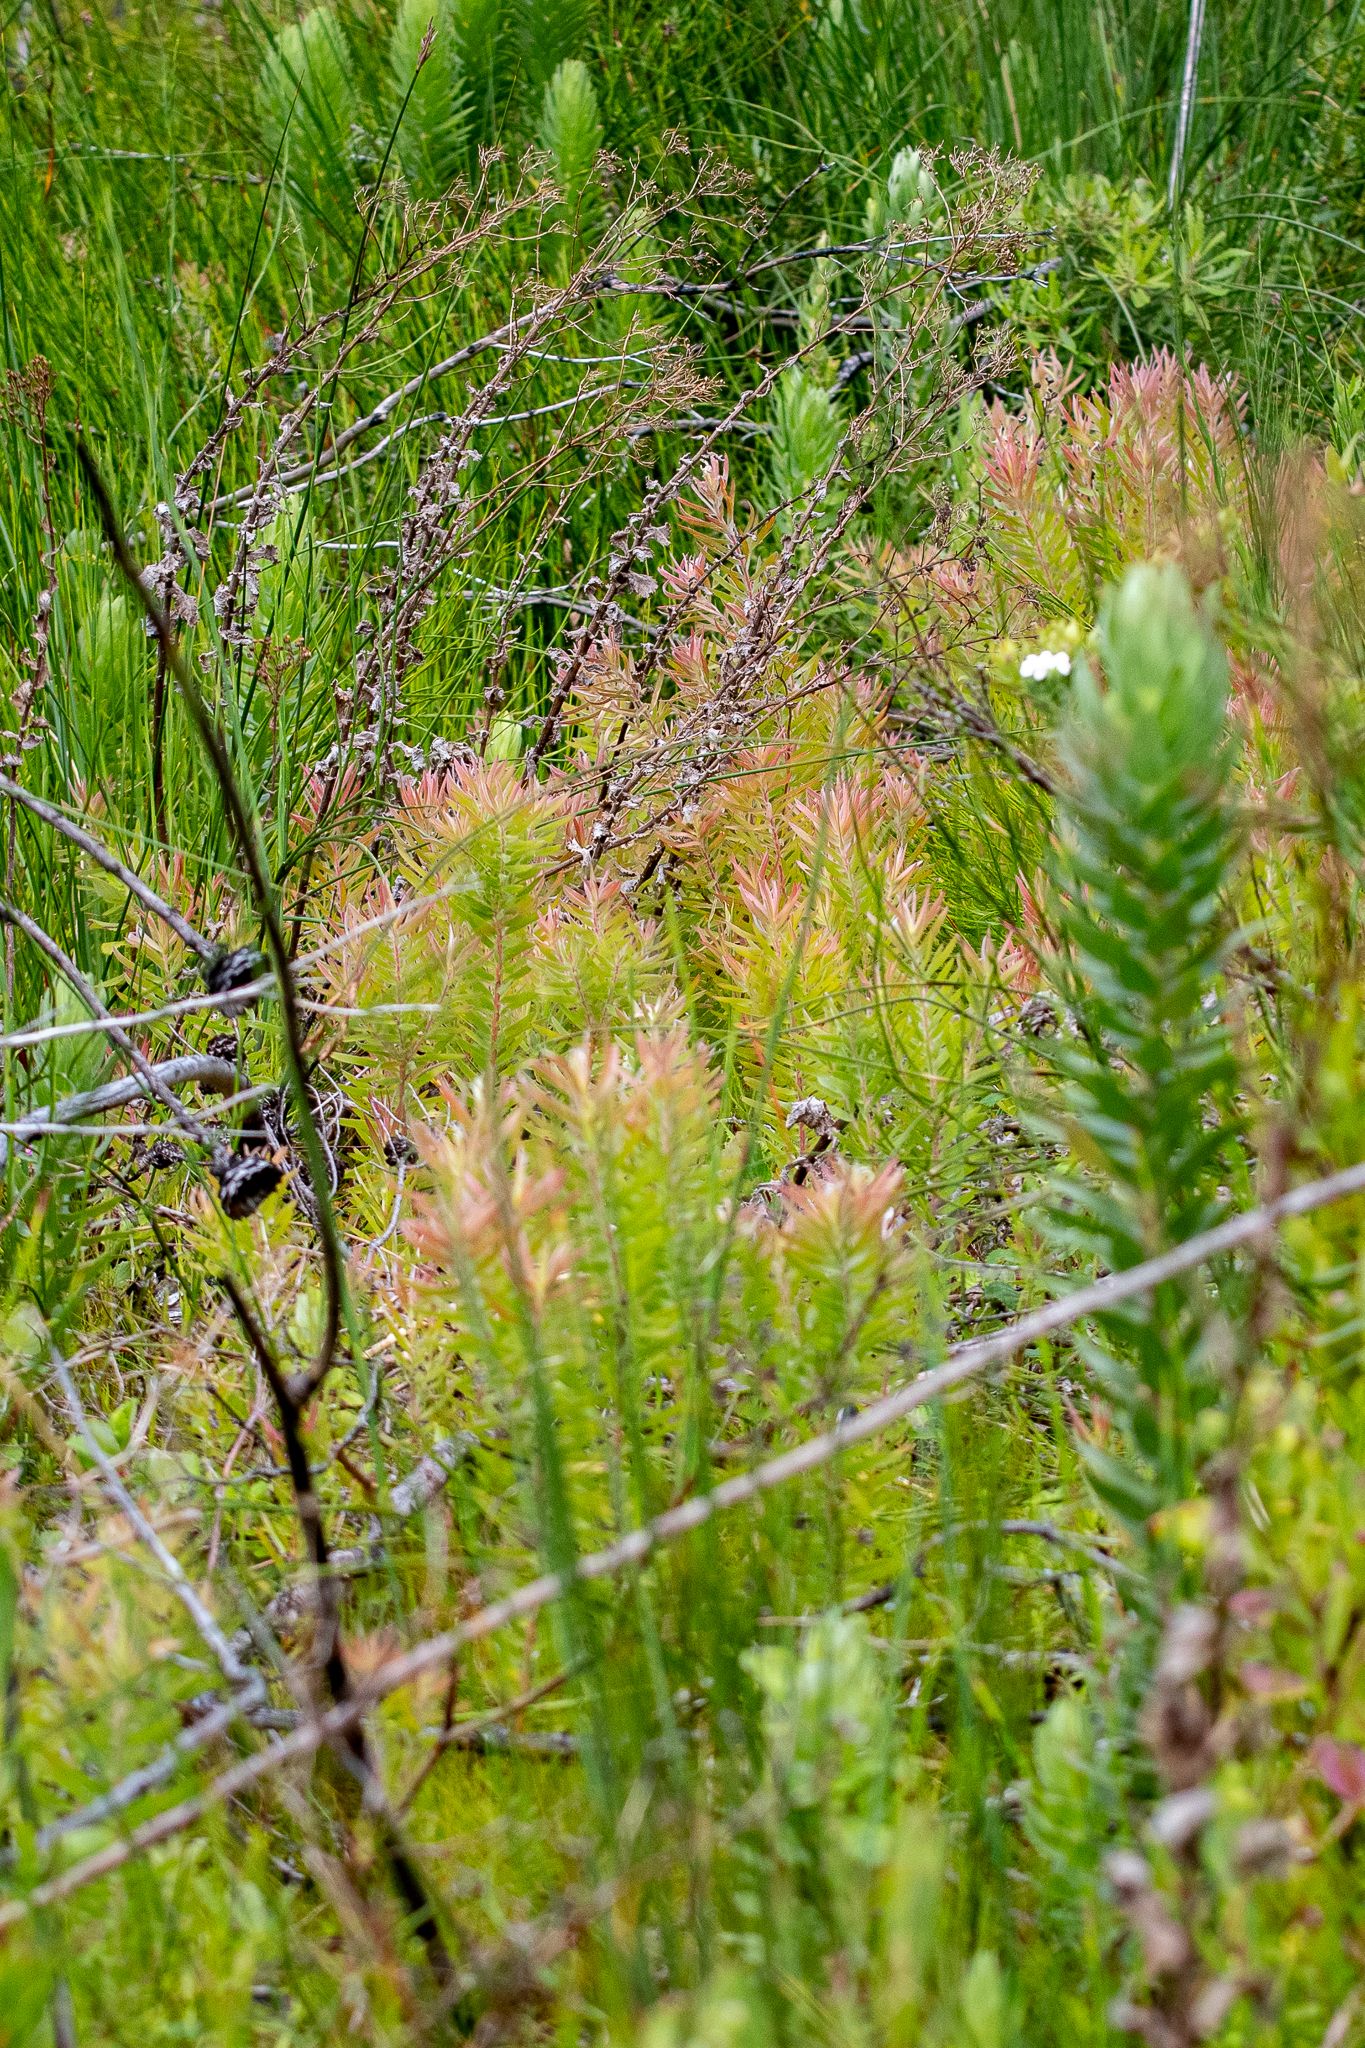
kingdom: Plantae
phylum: Tracheophyta
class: Magnoliopsida
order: Proteales
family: Proteaceae
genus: Leucadendron
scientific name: Leucadendron xanthoconus
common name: Sickle-leaf conebush
